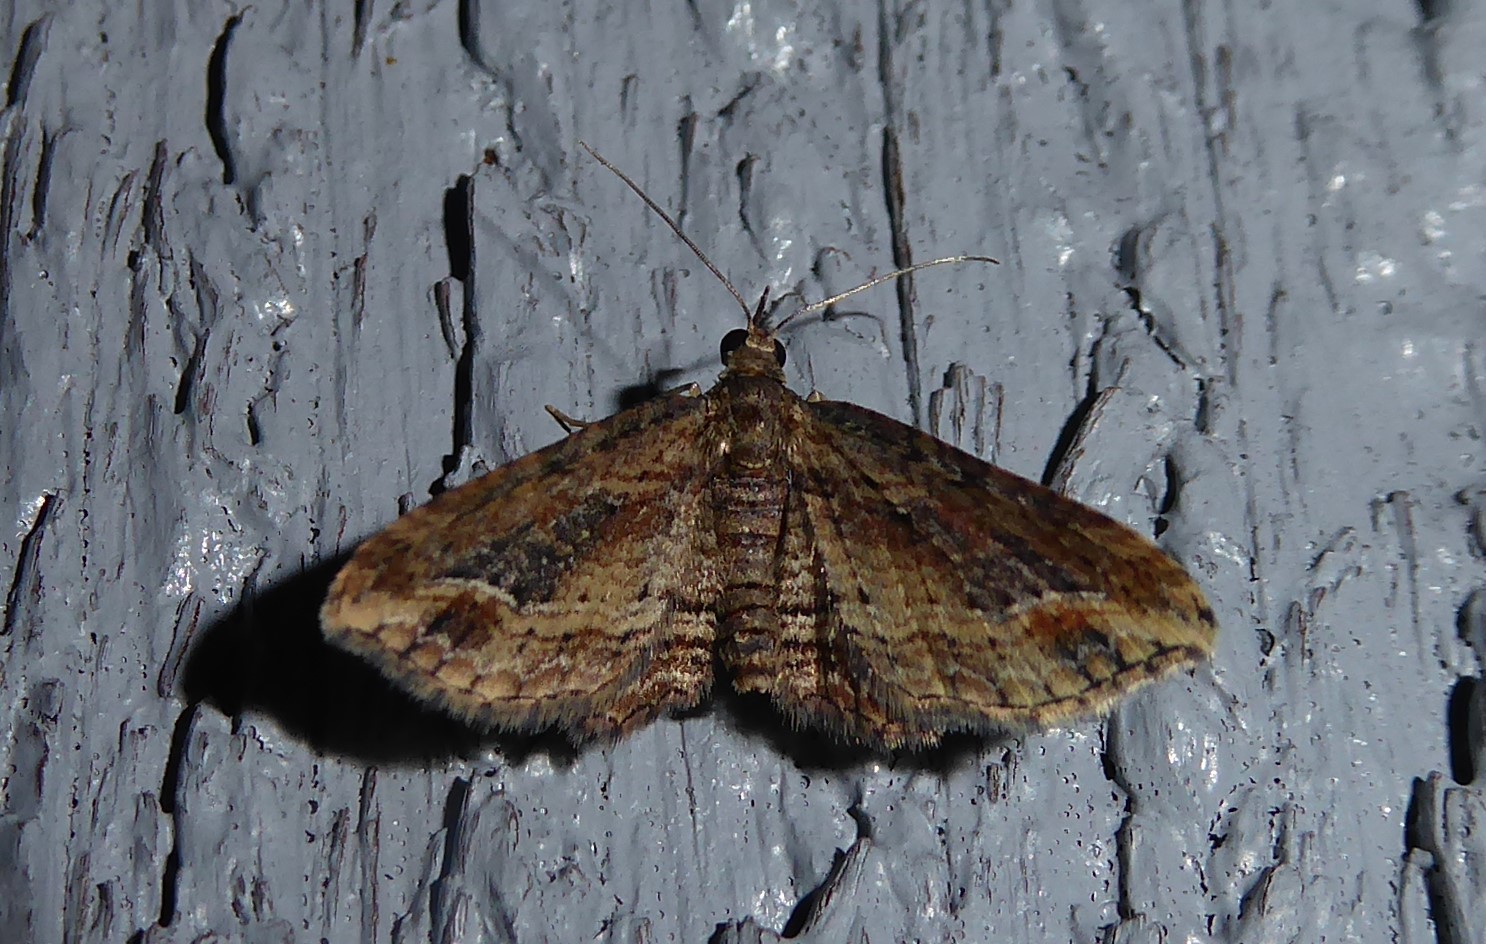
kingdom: Animalia
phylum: Arthropoda
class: Insecta
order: Lepidoptera
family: Geometridae
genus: Chloroclystis
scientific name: Chloroclystis filata
